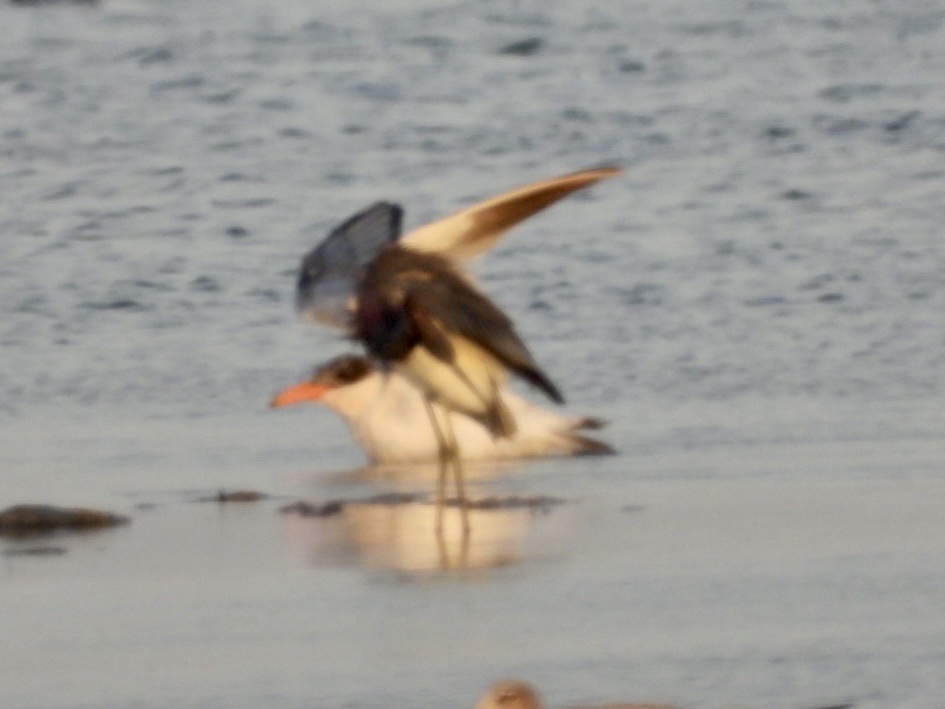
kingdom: Animalia
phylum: Chordata
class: Aves
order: Charadriiformes
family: Laridae
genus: Hydroprogne
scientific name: Hydroprogne caspia
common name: Caspian tern
